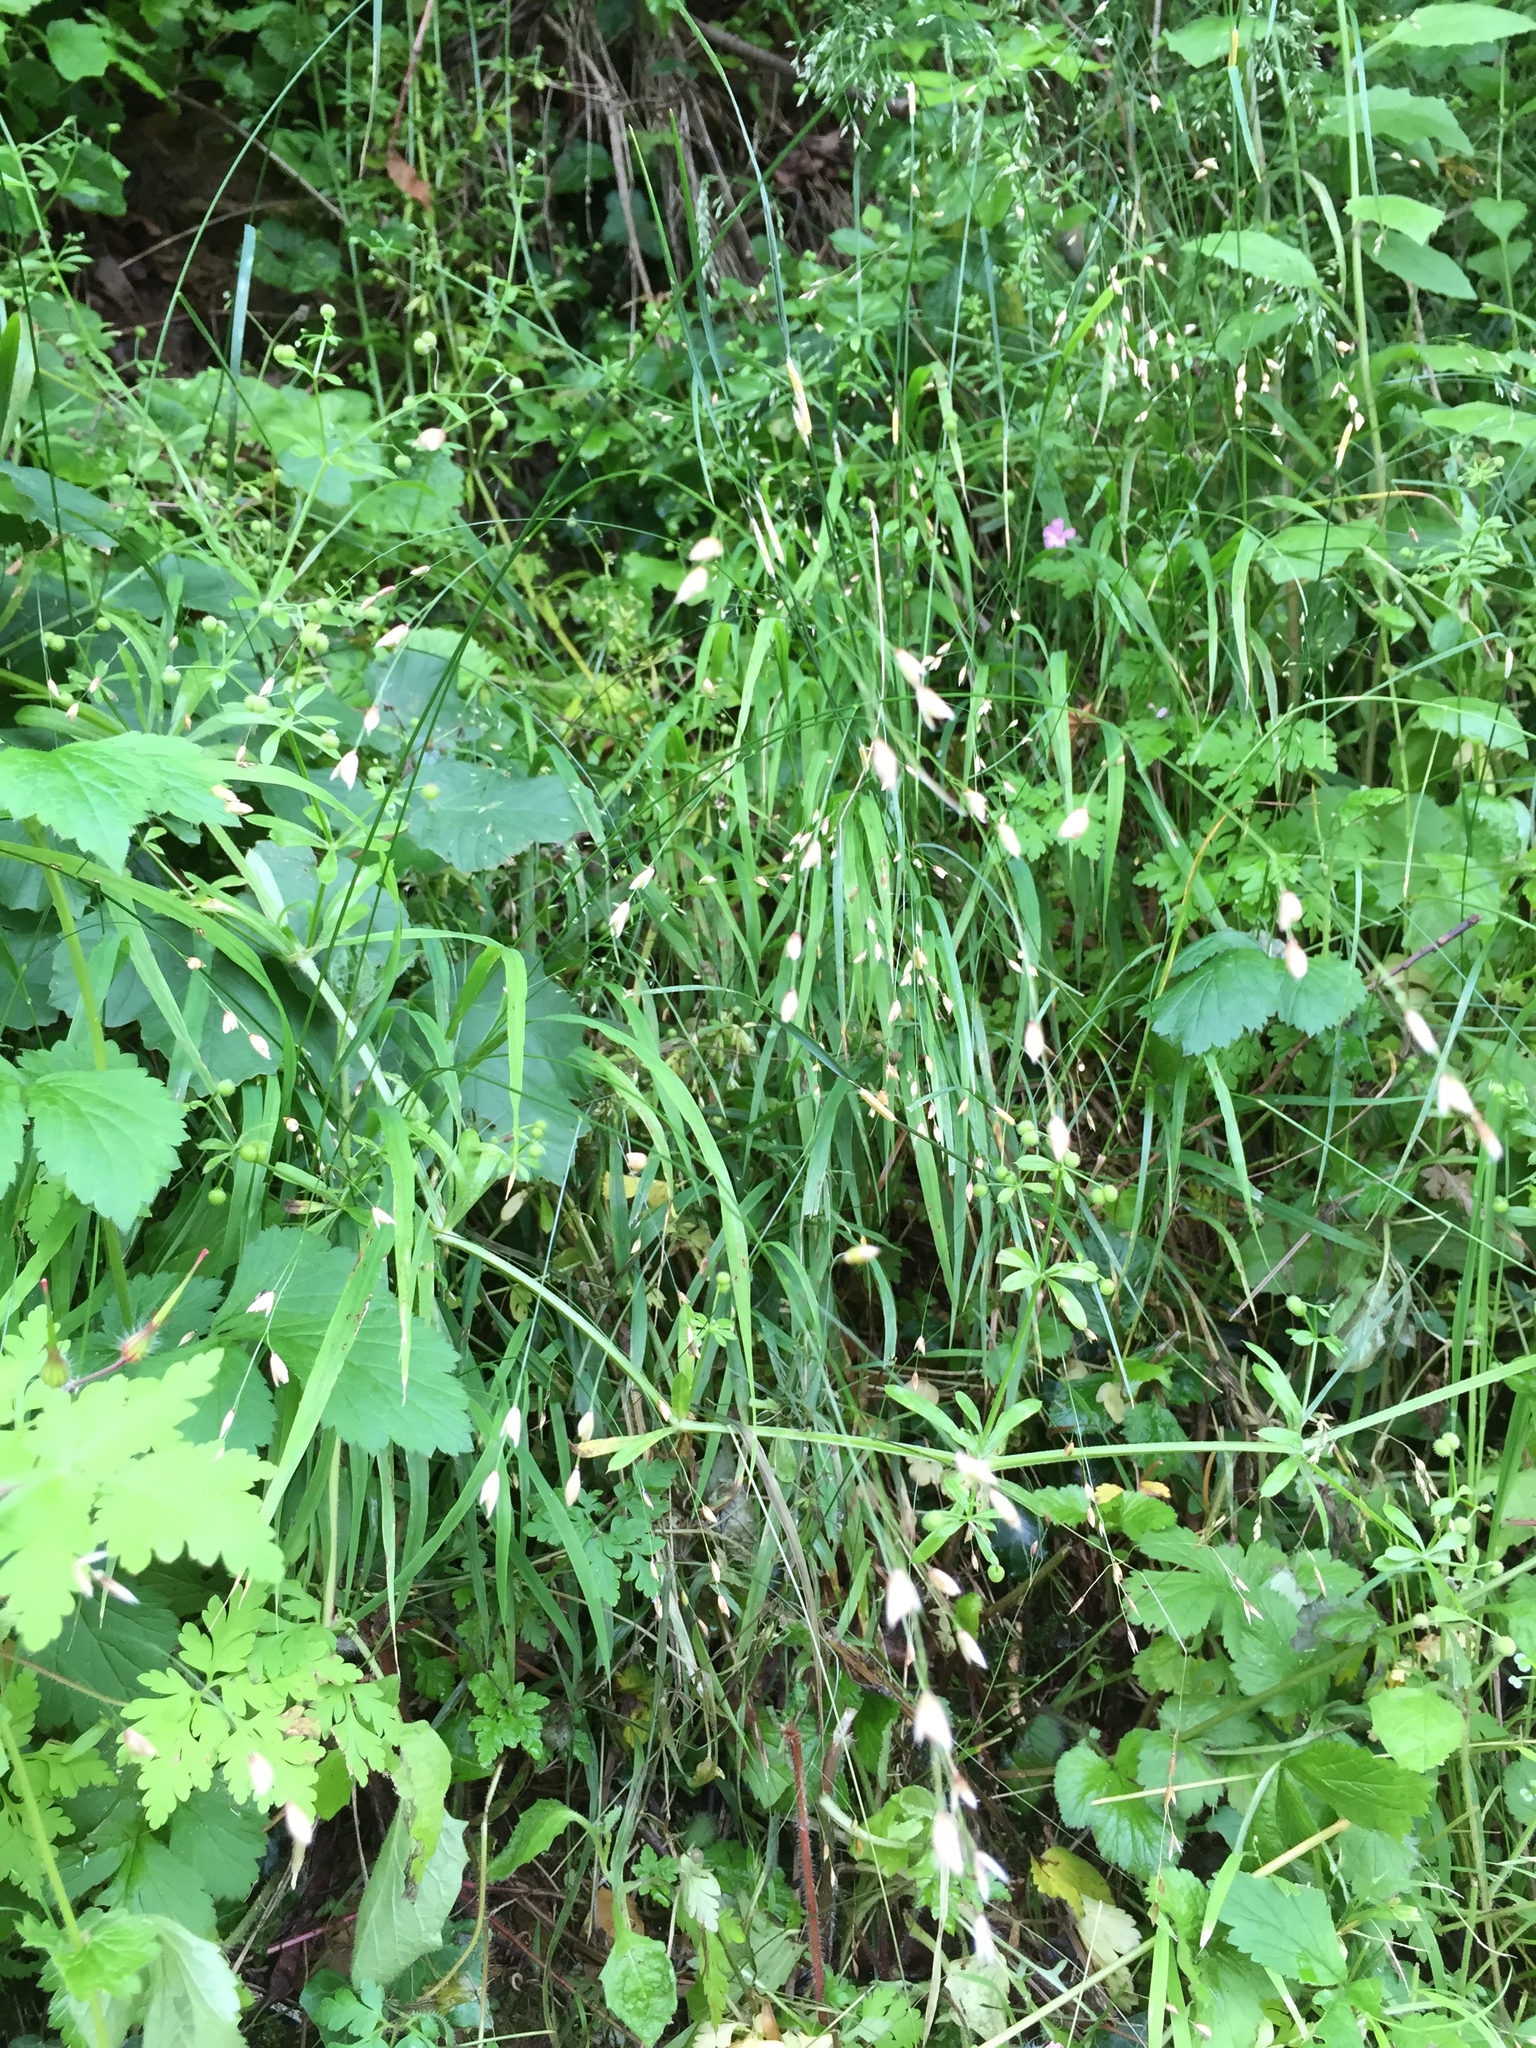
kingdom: Plantae
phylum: Tracheophyta
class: Liliopsida
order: Poales
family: Poaceae
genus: Melica
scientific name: Melica uniflora
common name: Wood melick
